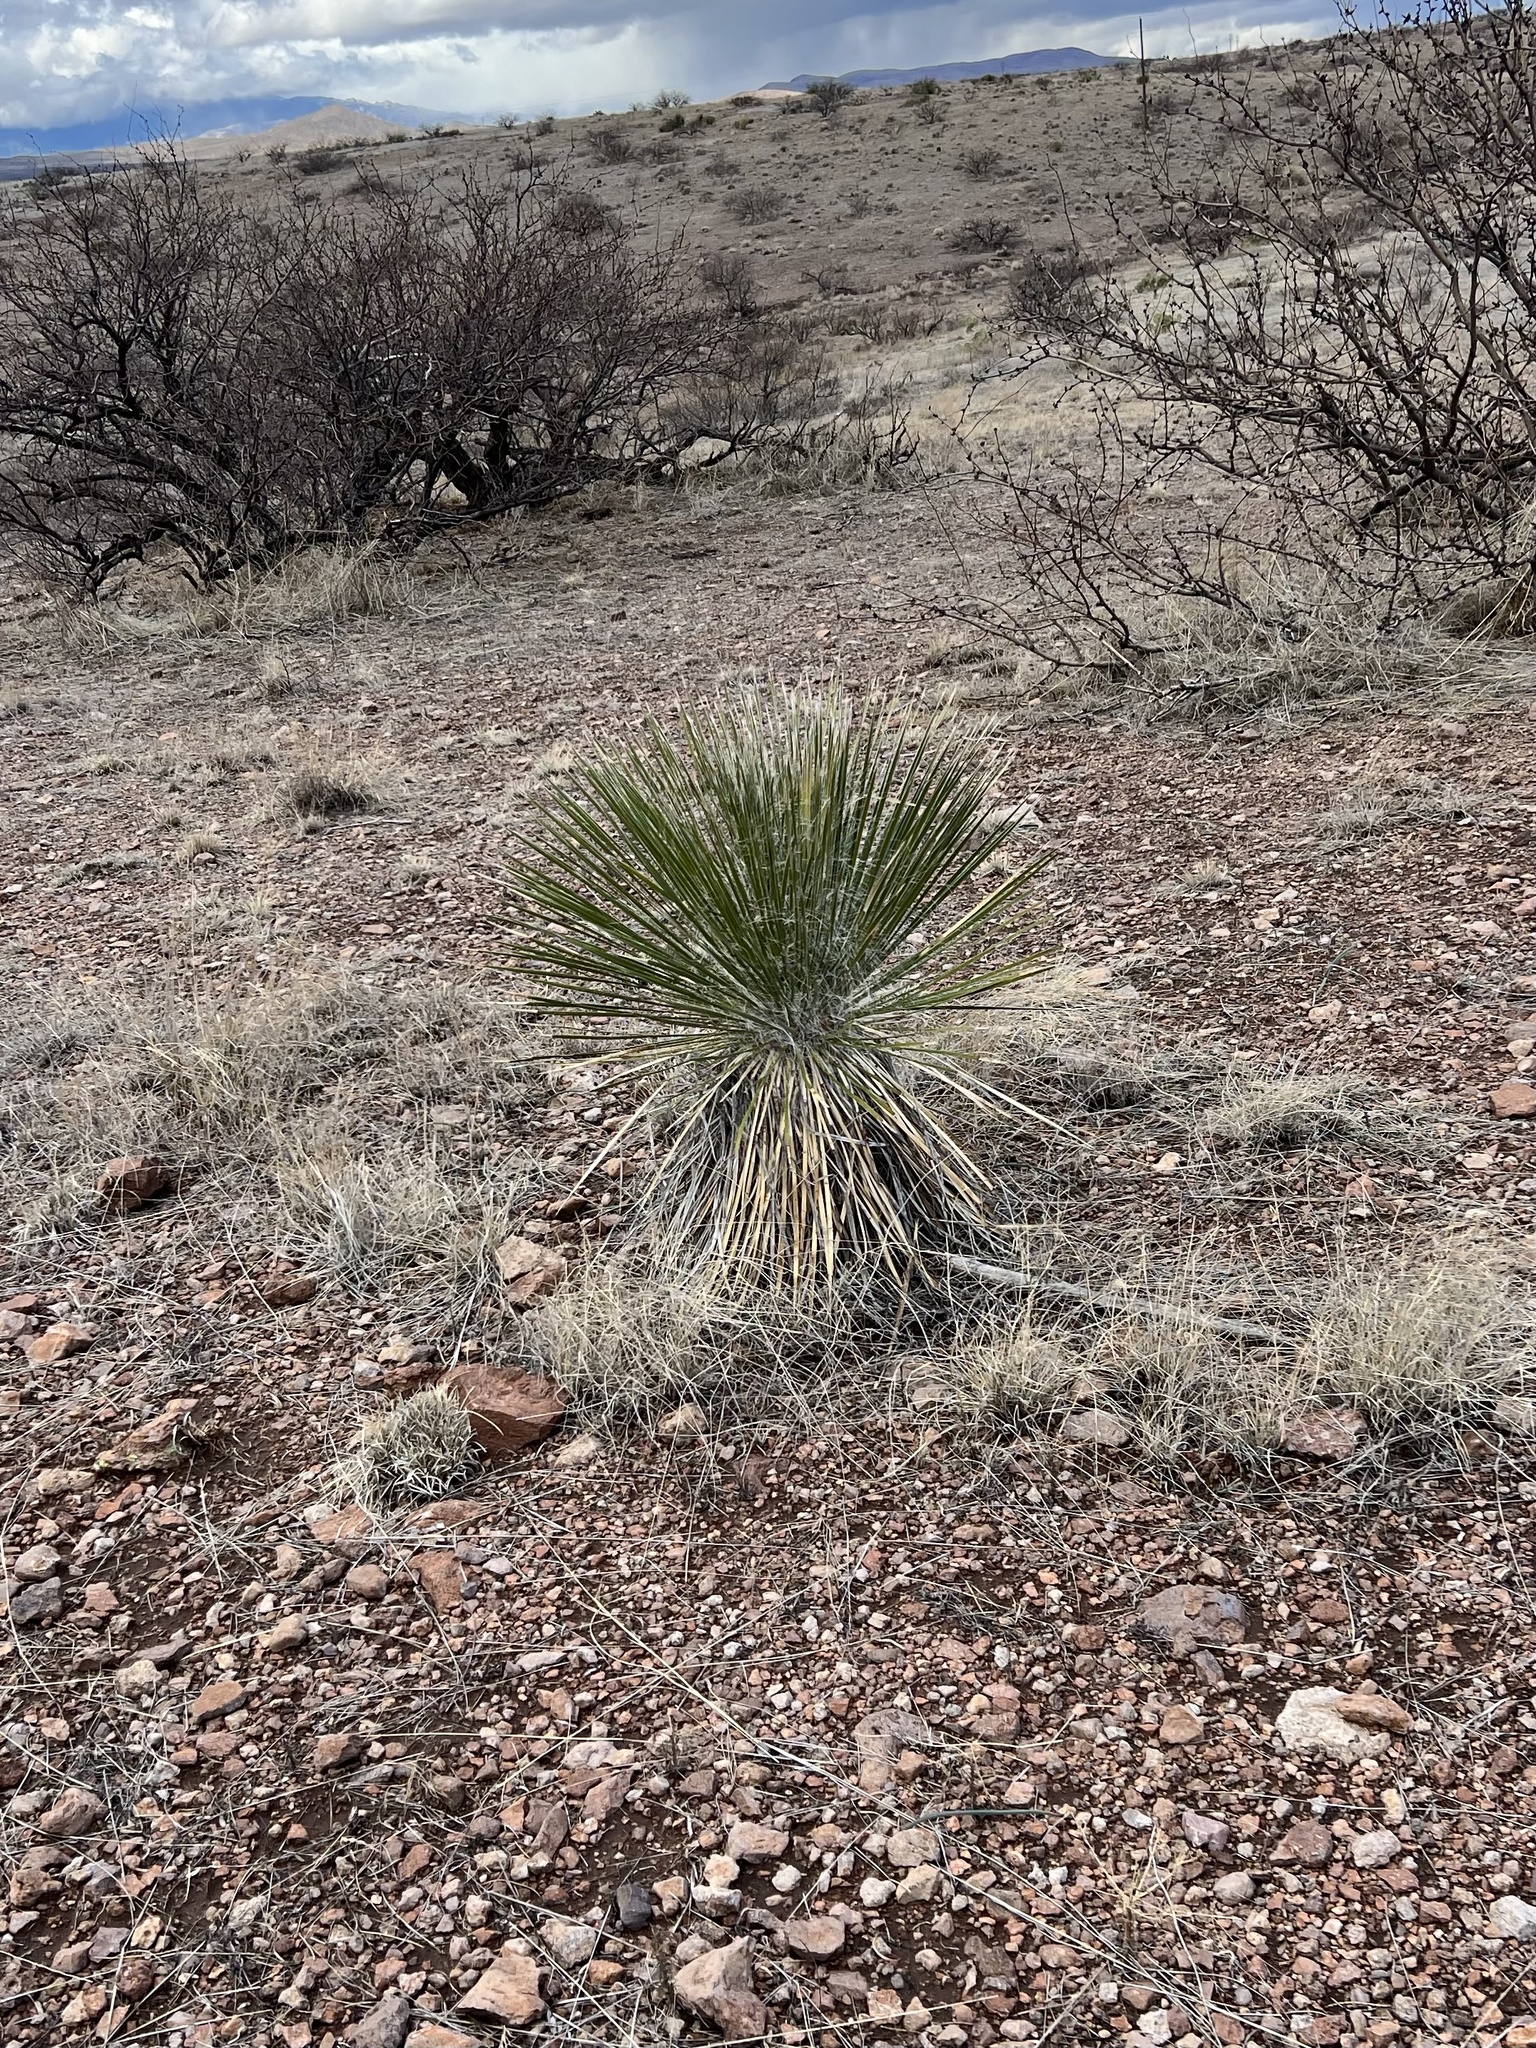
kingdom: Plantae
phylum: Tracheophyta
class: Liliopsida
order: Asparagales
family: Asparagaceae
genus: Yucca
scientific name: Yucca elata
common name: Palmella
